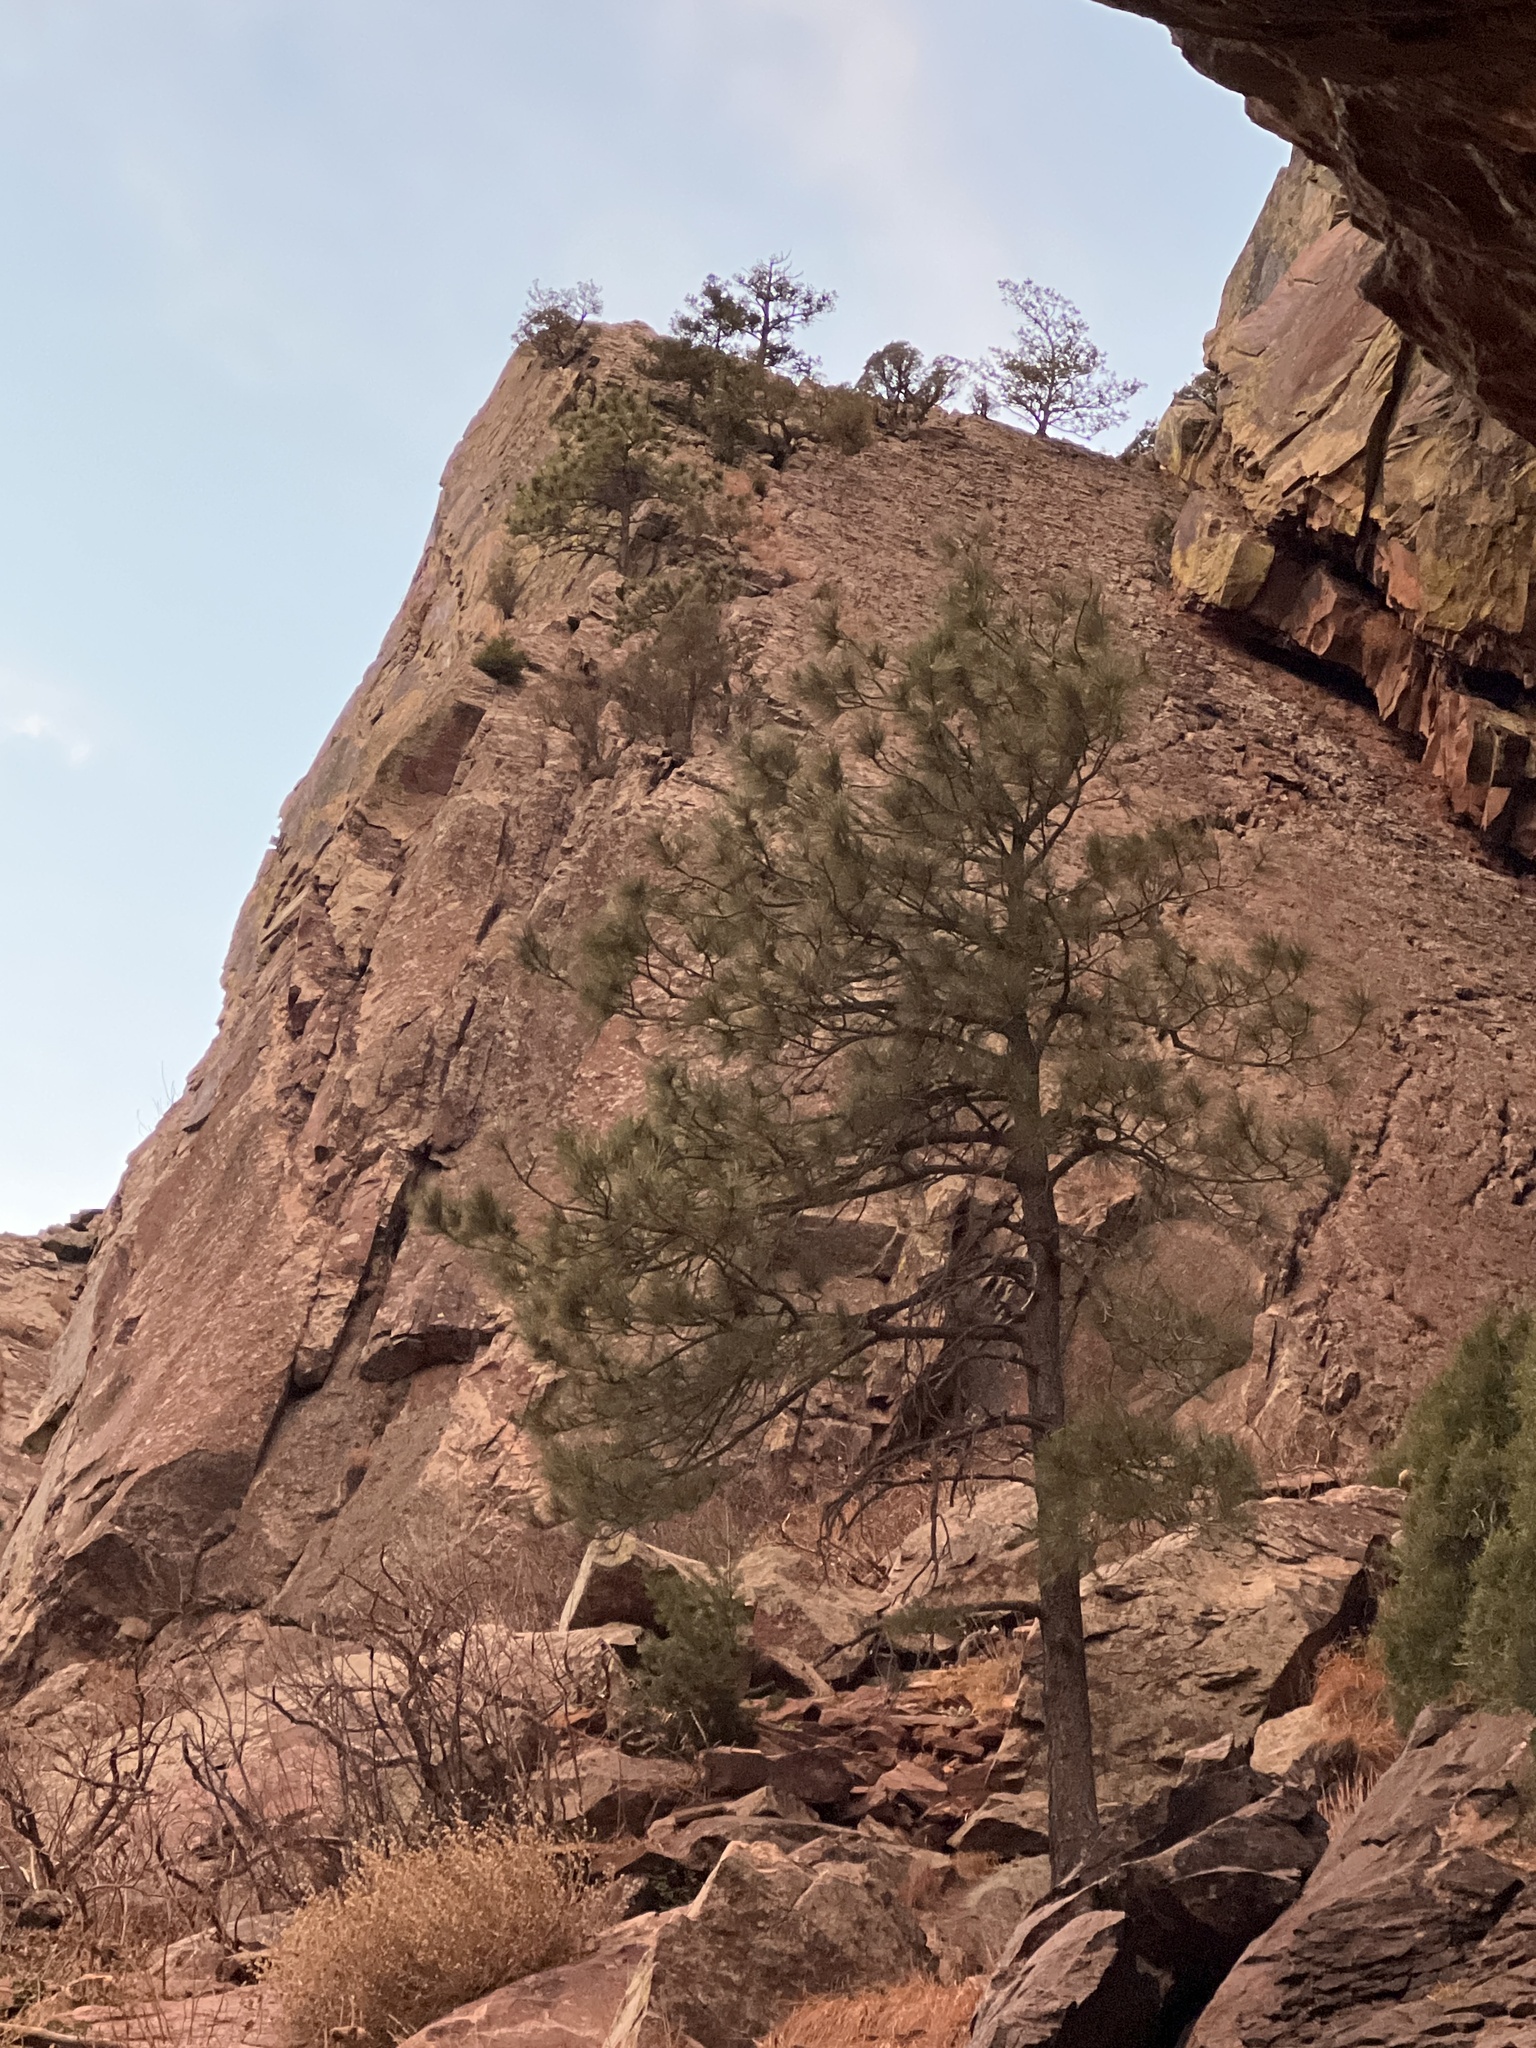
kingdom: Plantae
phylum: Tracheophyta
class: Pinopsida
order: Pinales
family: Pinaceae
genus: Pinus
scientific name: Pinus ponderosa
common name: Western yellow-pine
